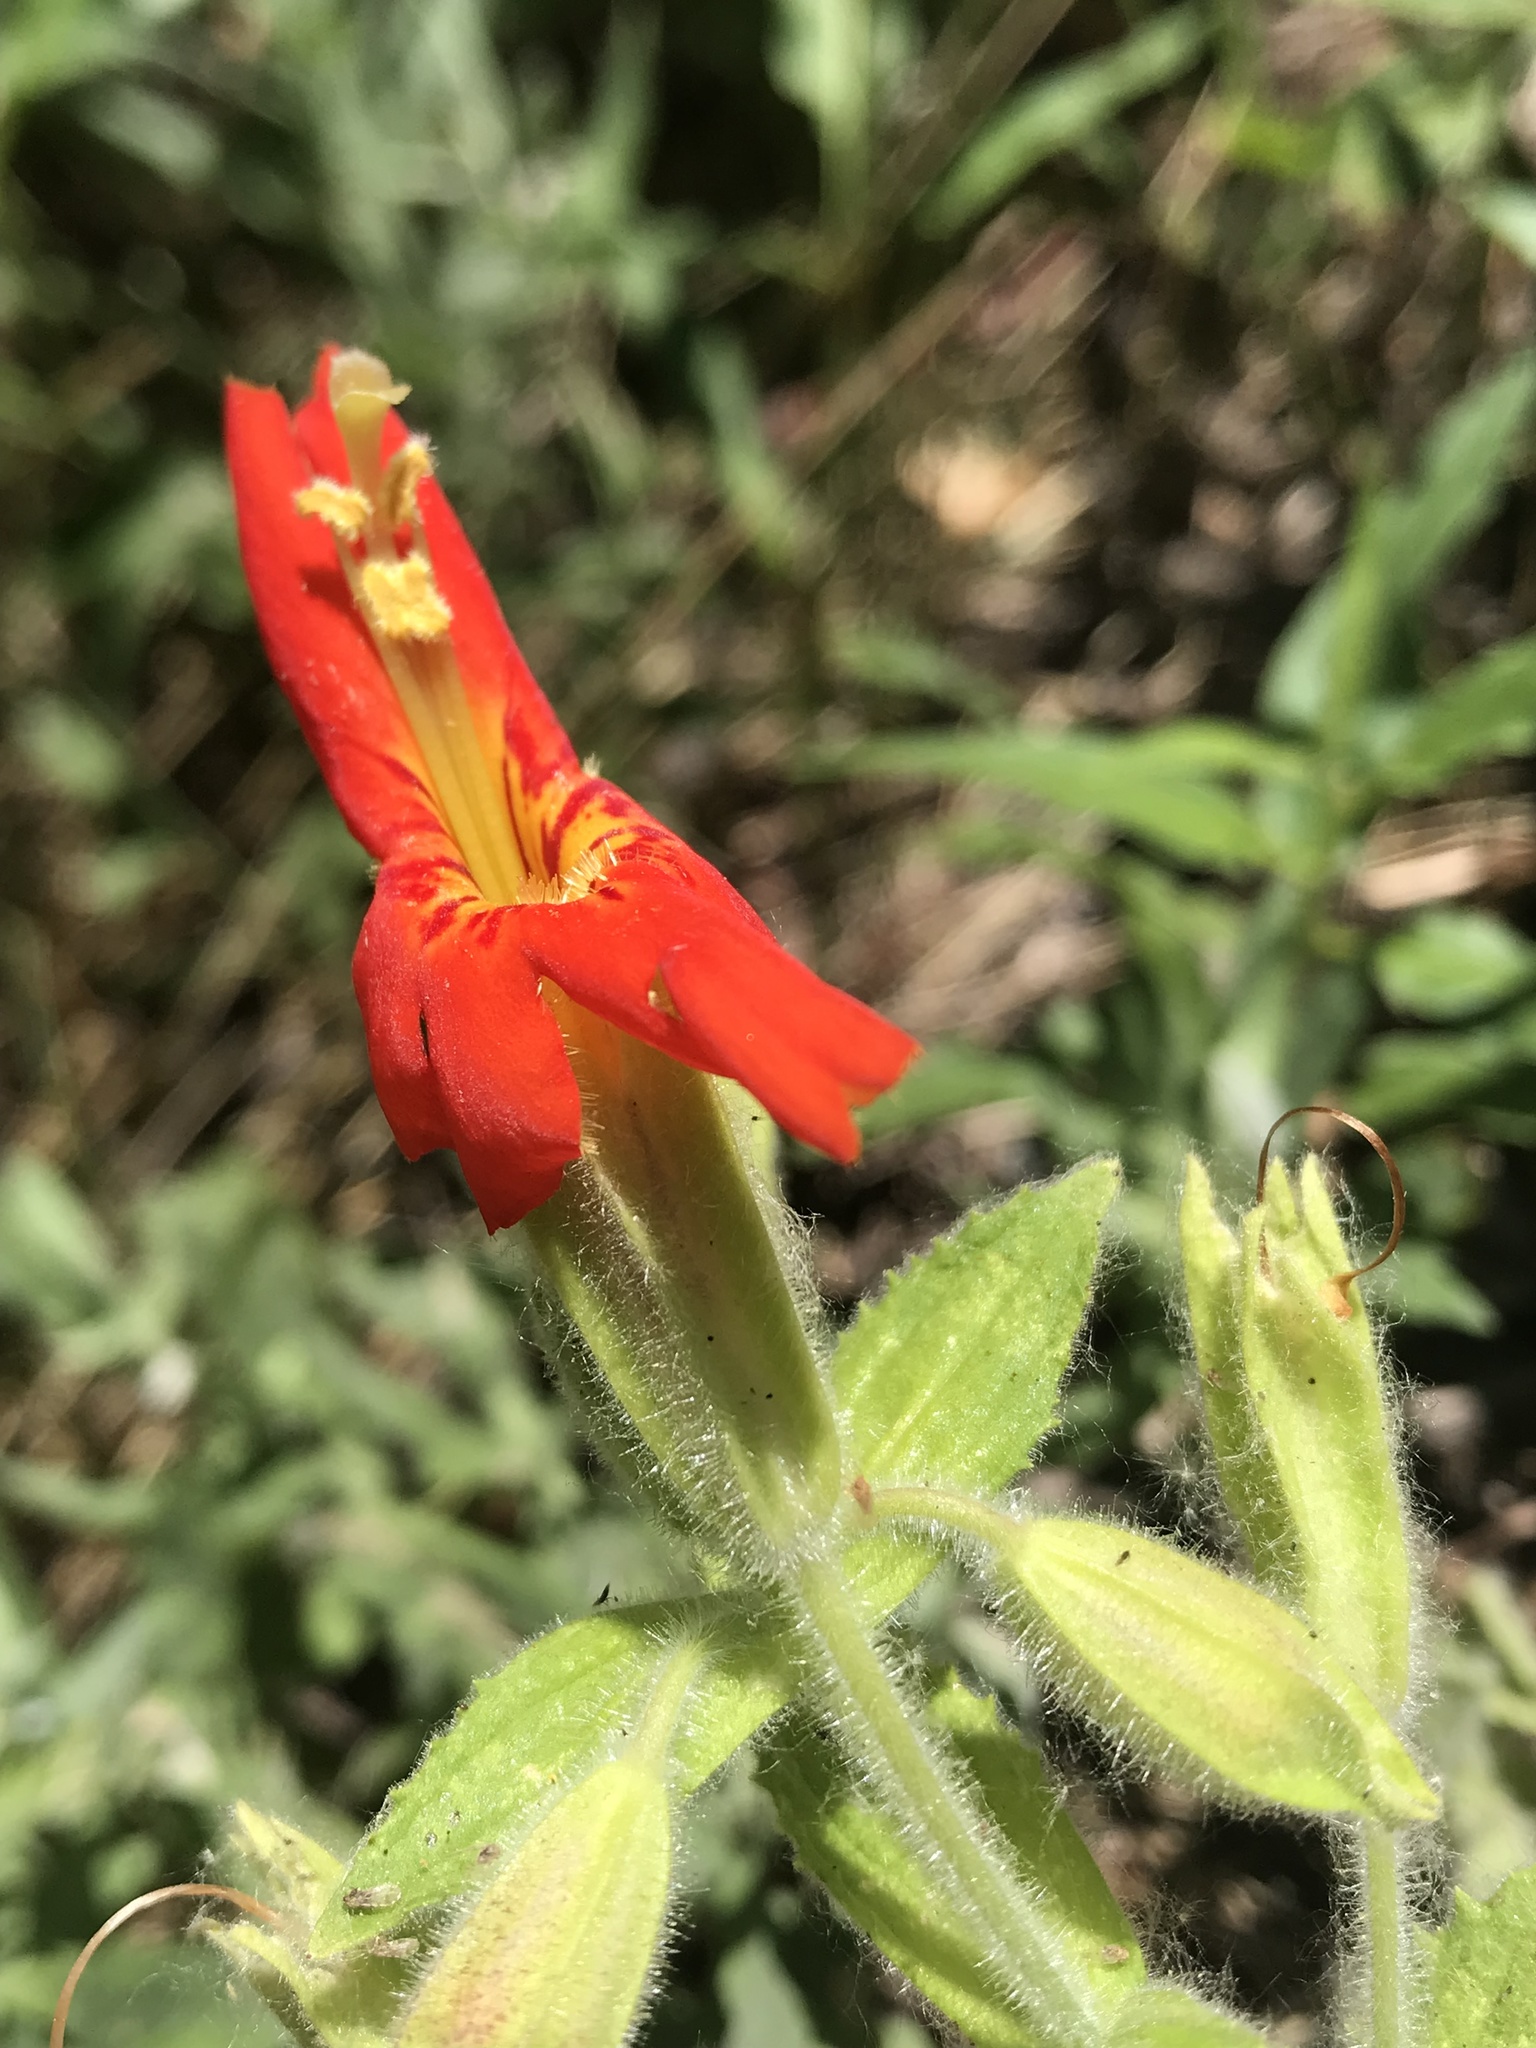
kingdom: Plantae
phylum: Tracheophyta
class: Magnoliopsida
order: Lamiales
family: Phrymaceae
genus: Erythranthe
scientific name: Erythranthe cardinalis
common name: Scarlet monkey-flower
